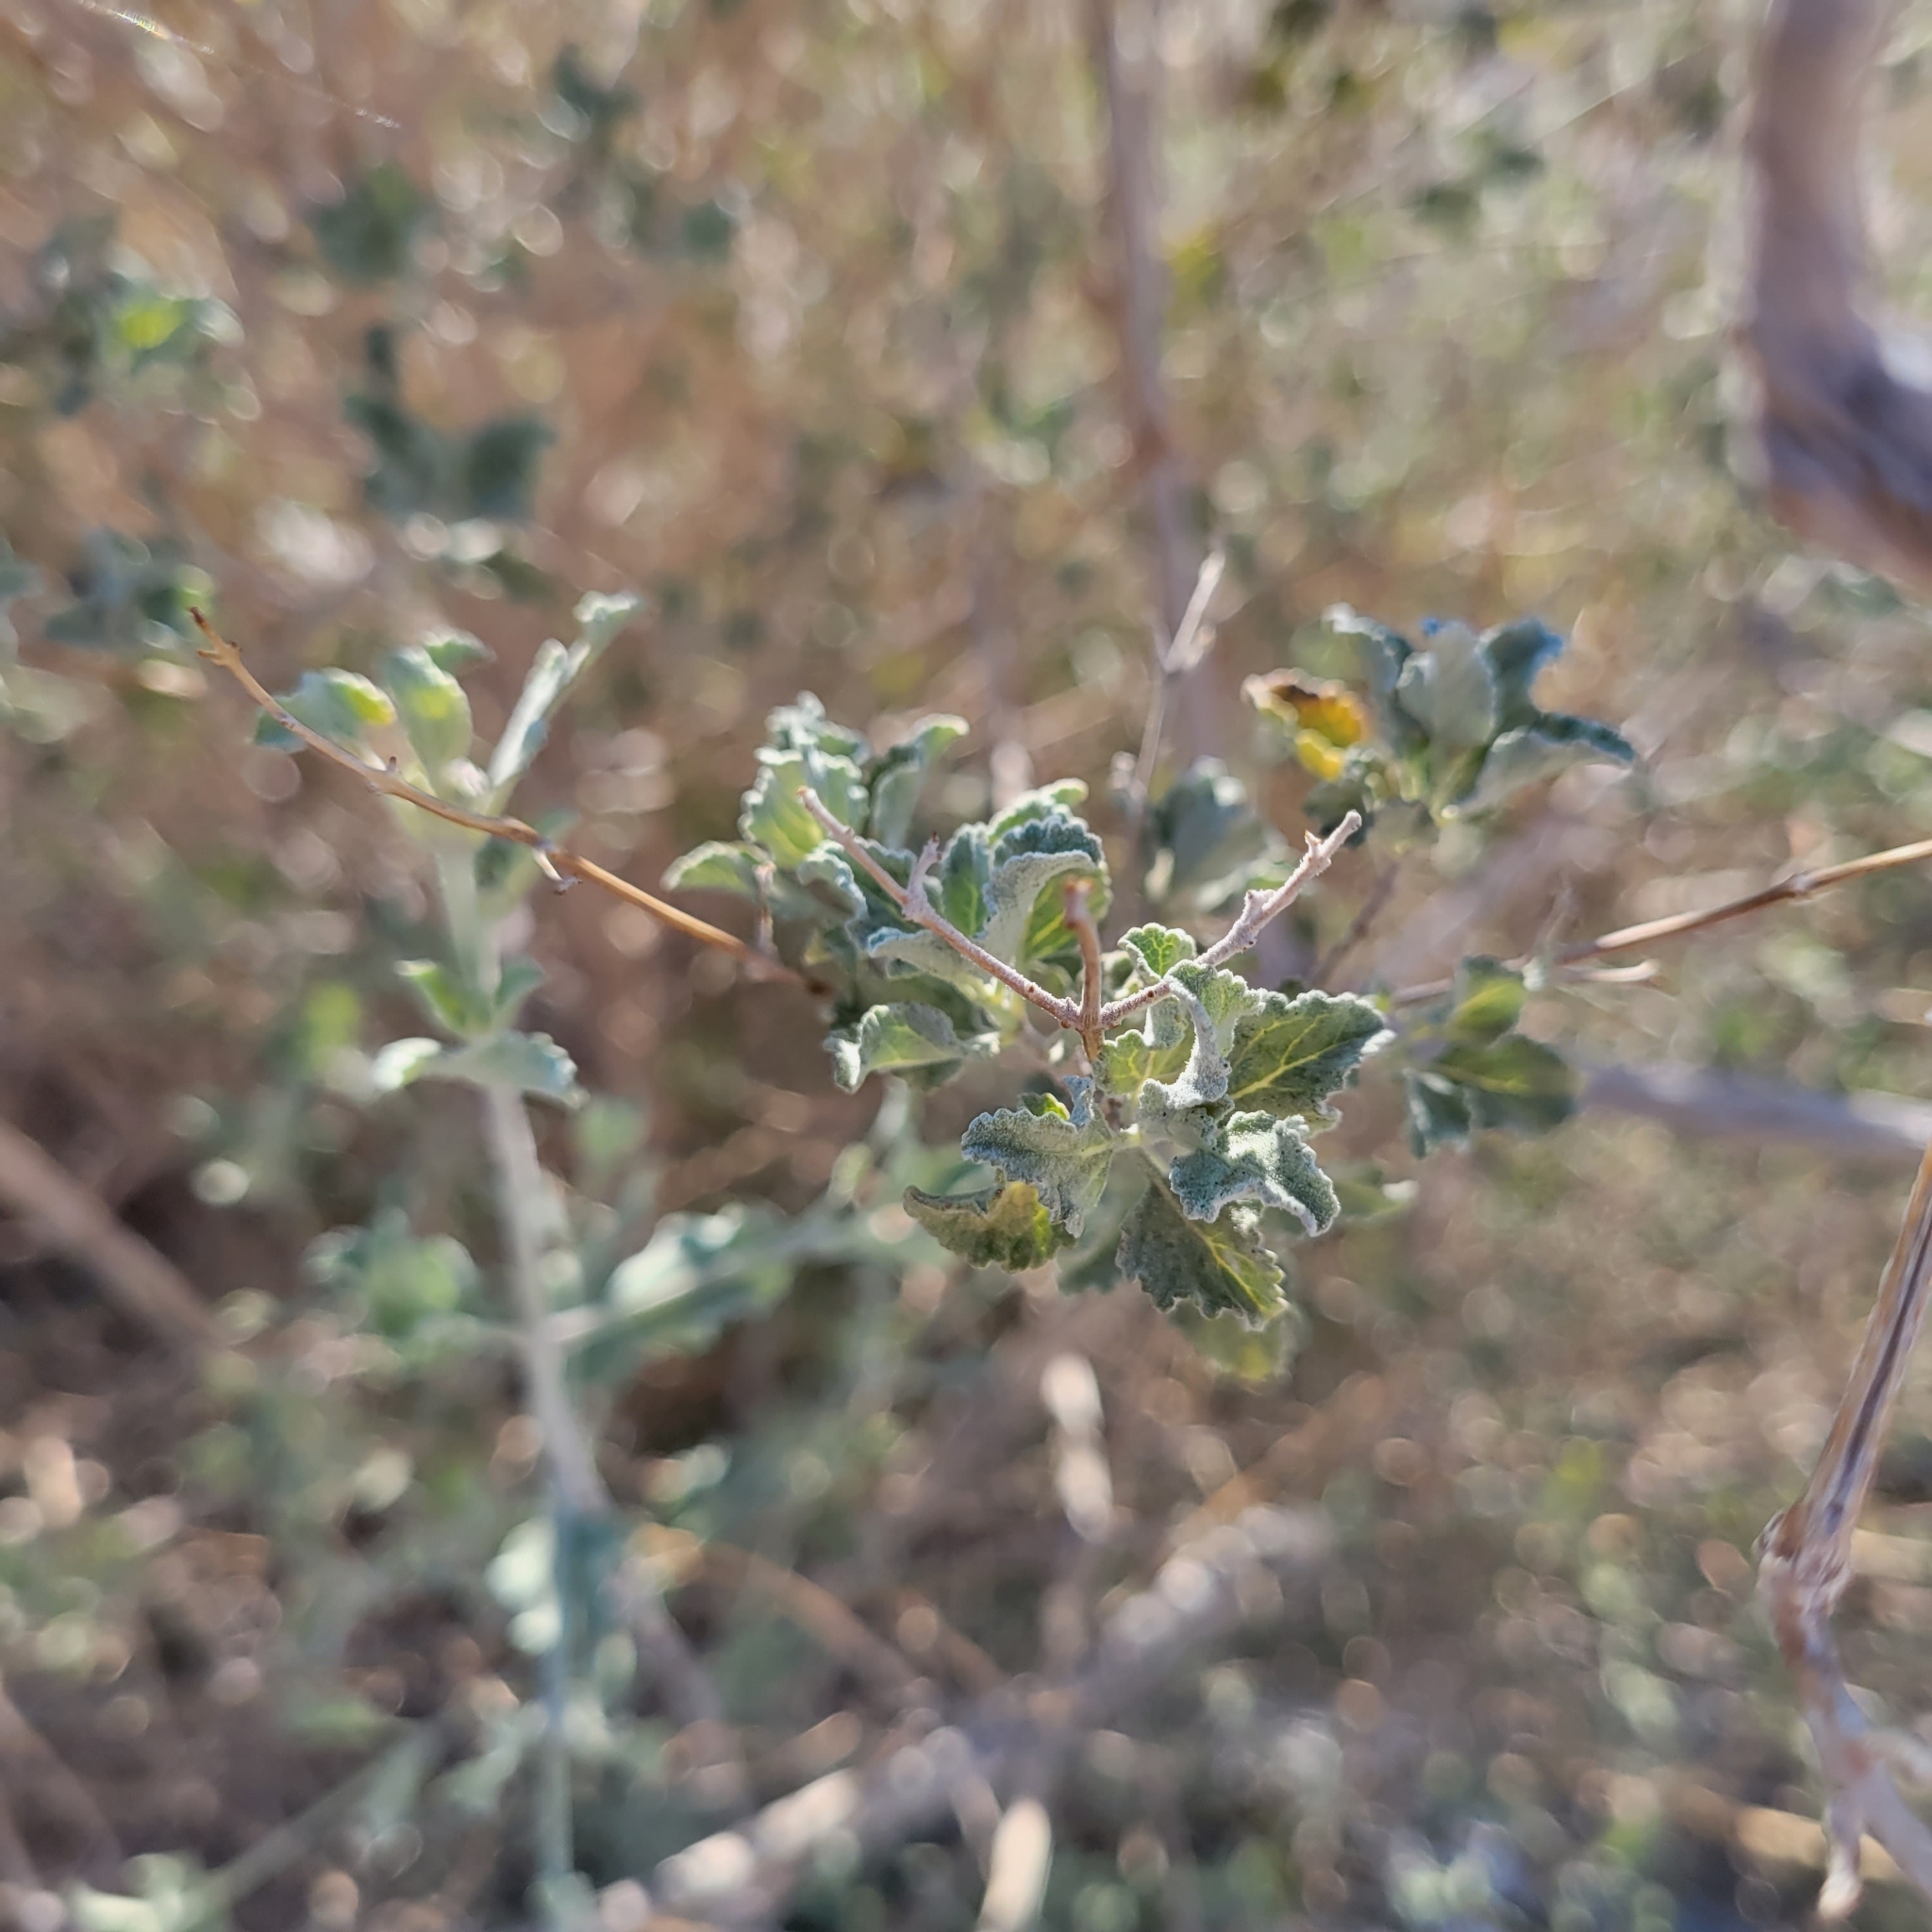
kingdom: Plantae
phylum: Tracheophyta
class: Magnoliopsida
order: Lamiales
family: Lamiaceae
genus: Condea
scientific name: Condea emoryi
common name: Chia
